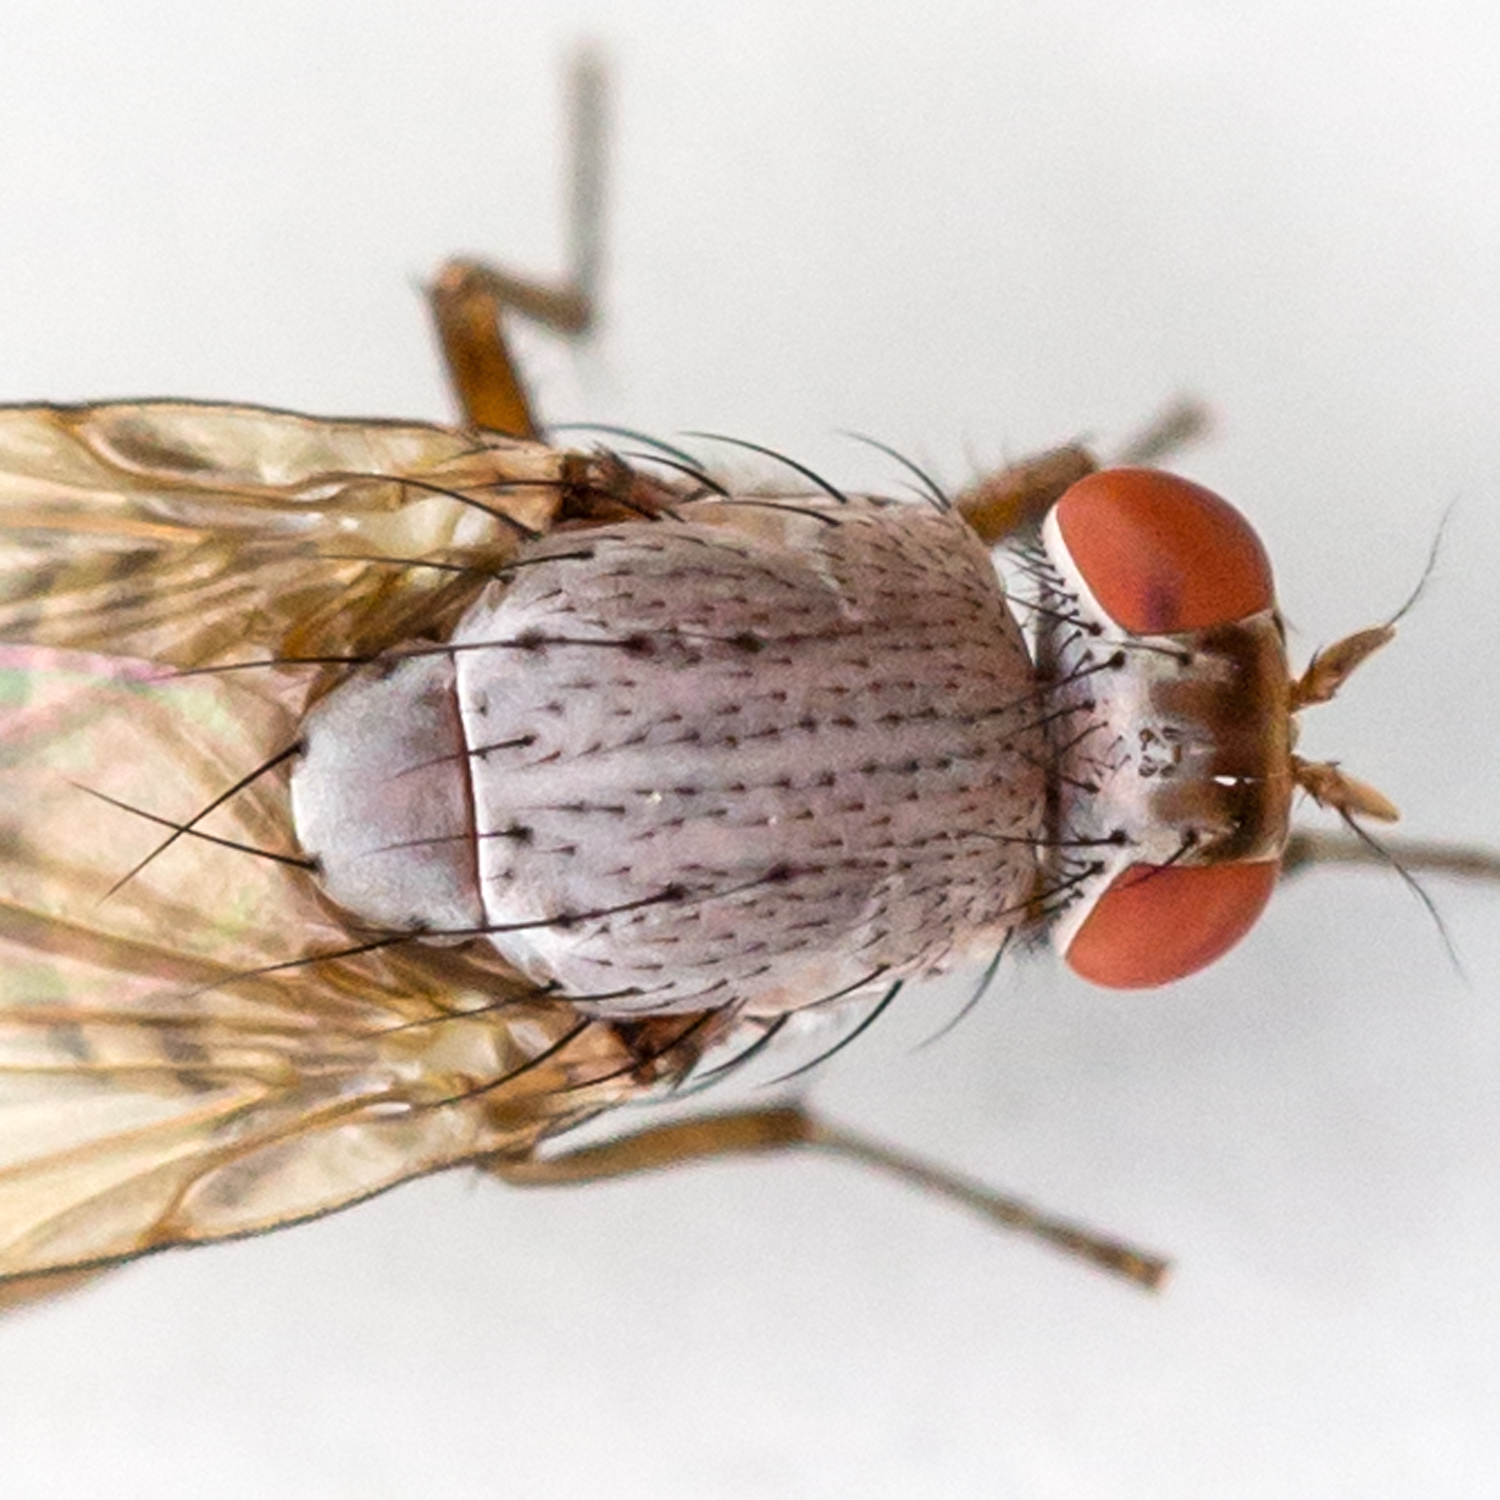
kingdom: Animalia
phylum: Arthropoda
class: Insecta
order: Diptera
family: Lauxaniidae
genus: Minettia
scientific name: Minettia magna
